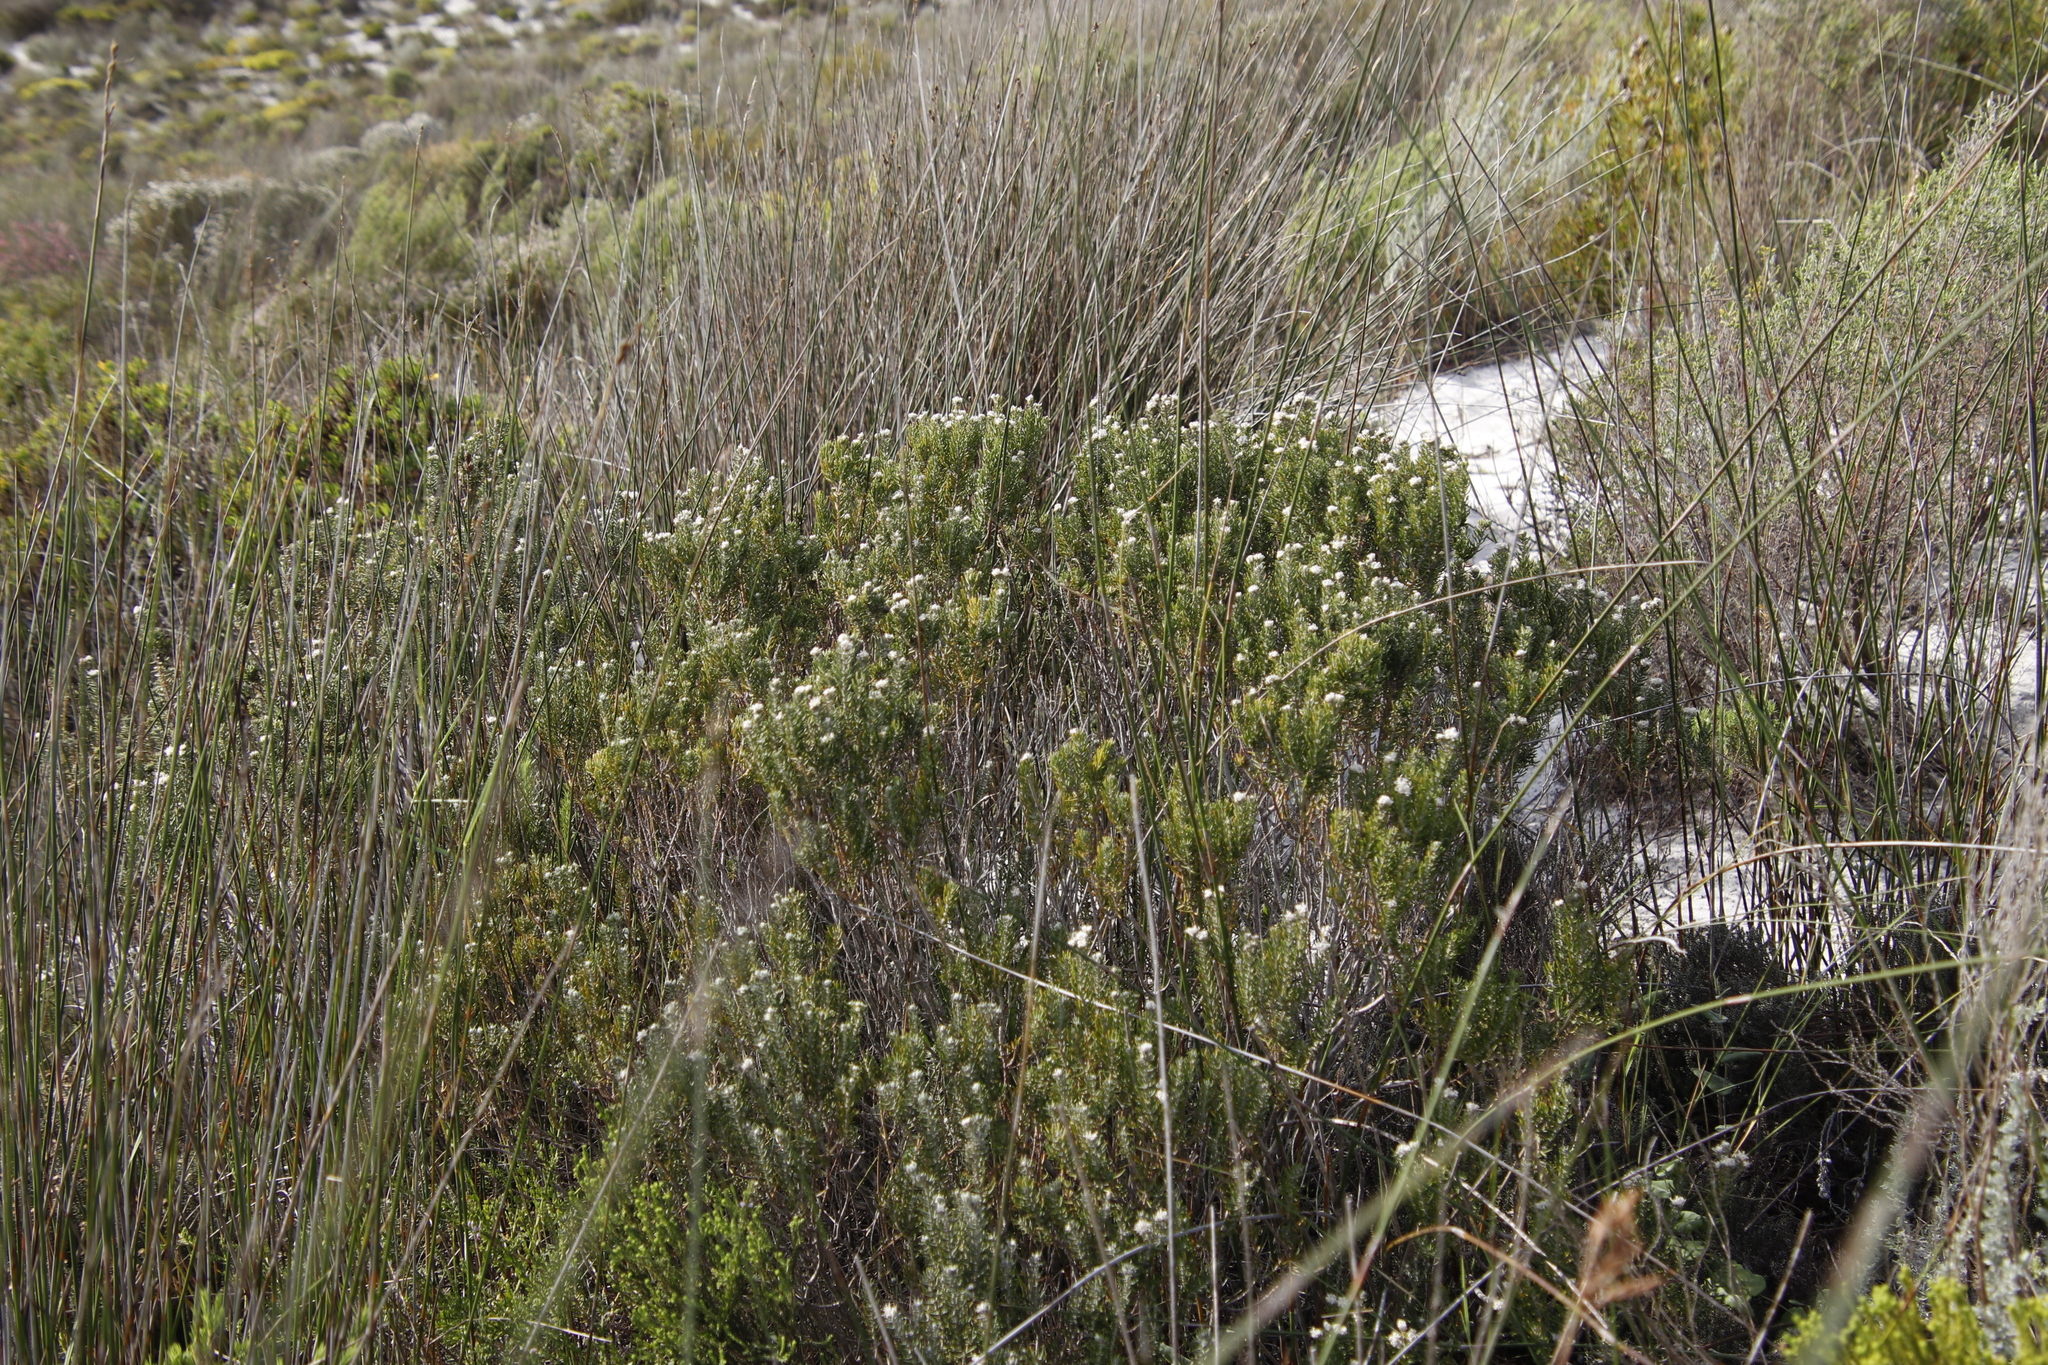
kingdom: Plantae
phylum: Tracheophyta
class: Magnoliopsida
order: Rosales
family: Rhamnaceae
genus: Trichocephalus
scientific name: Trichocephalus stipularis
